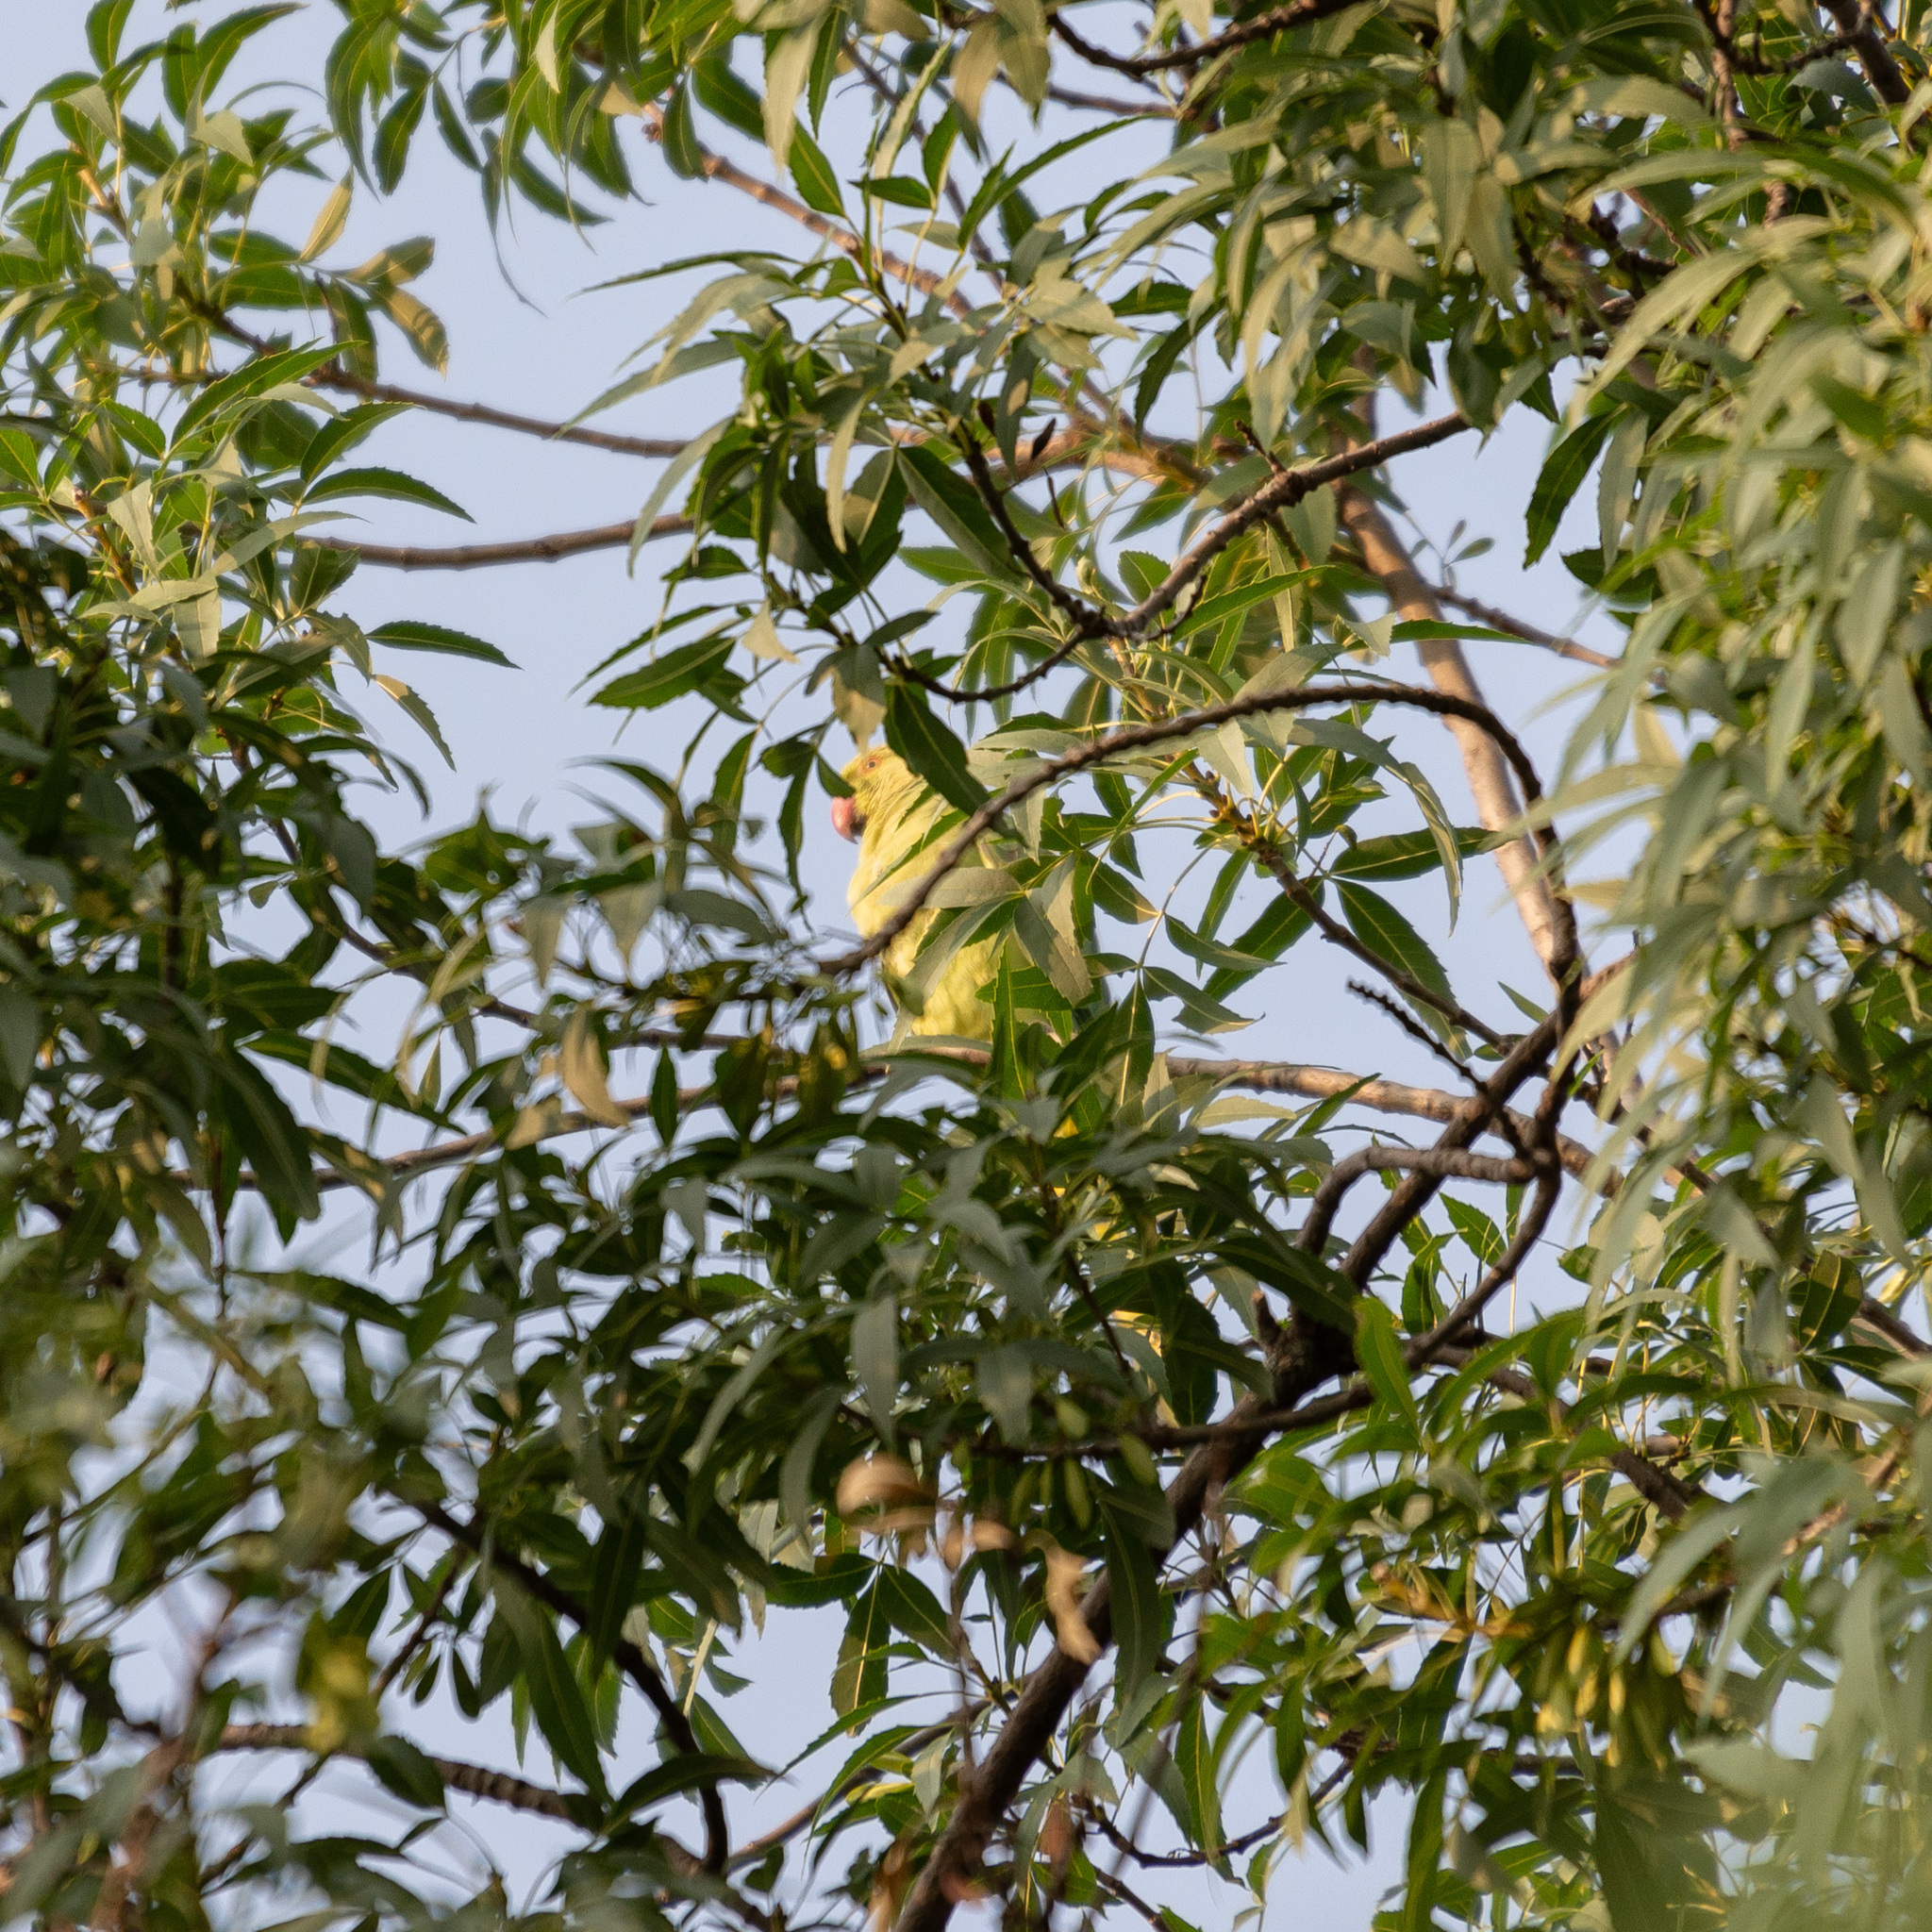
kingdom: Animalia
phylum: Chordata
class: Aves
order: Psittaciformes
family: Psittacidae
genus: Psittacula
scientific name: Psittacula krameri
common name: Rose-ringed parakeet
